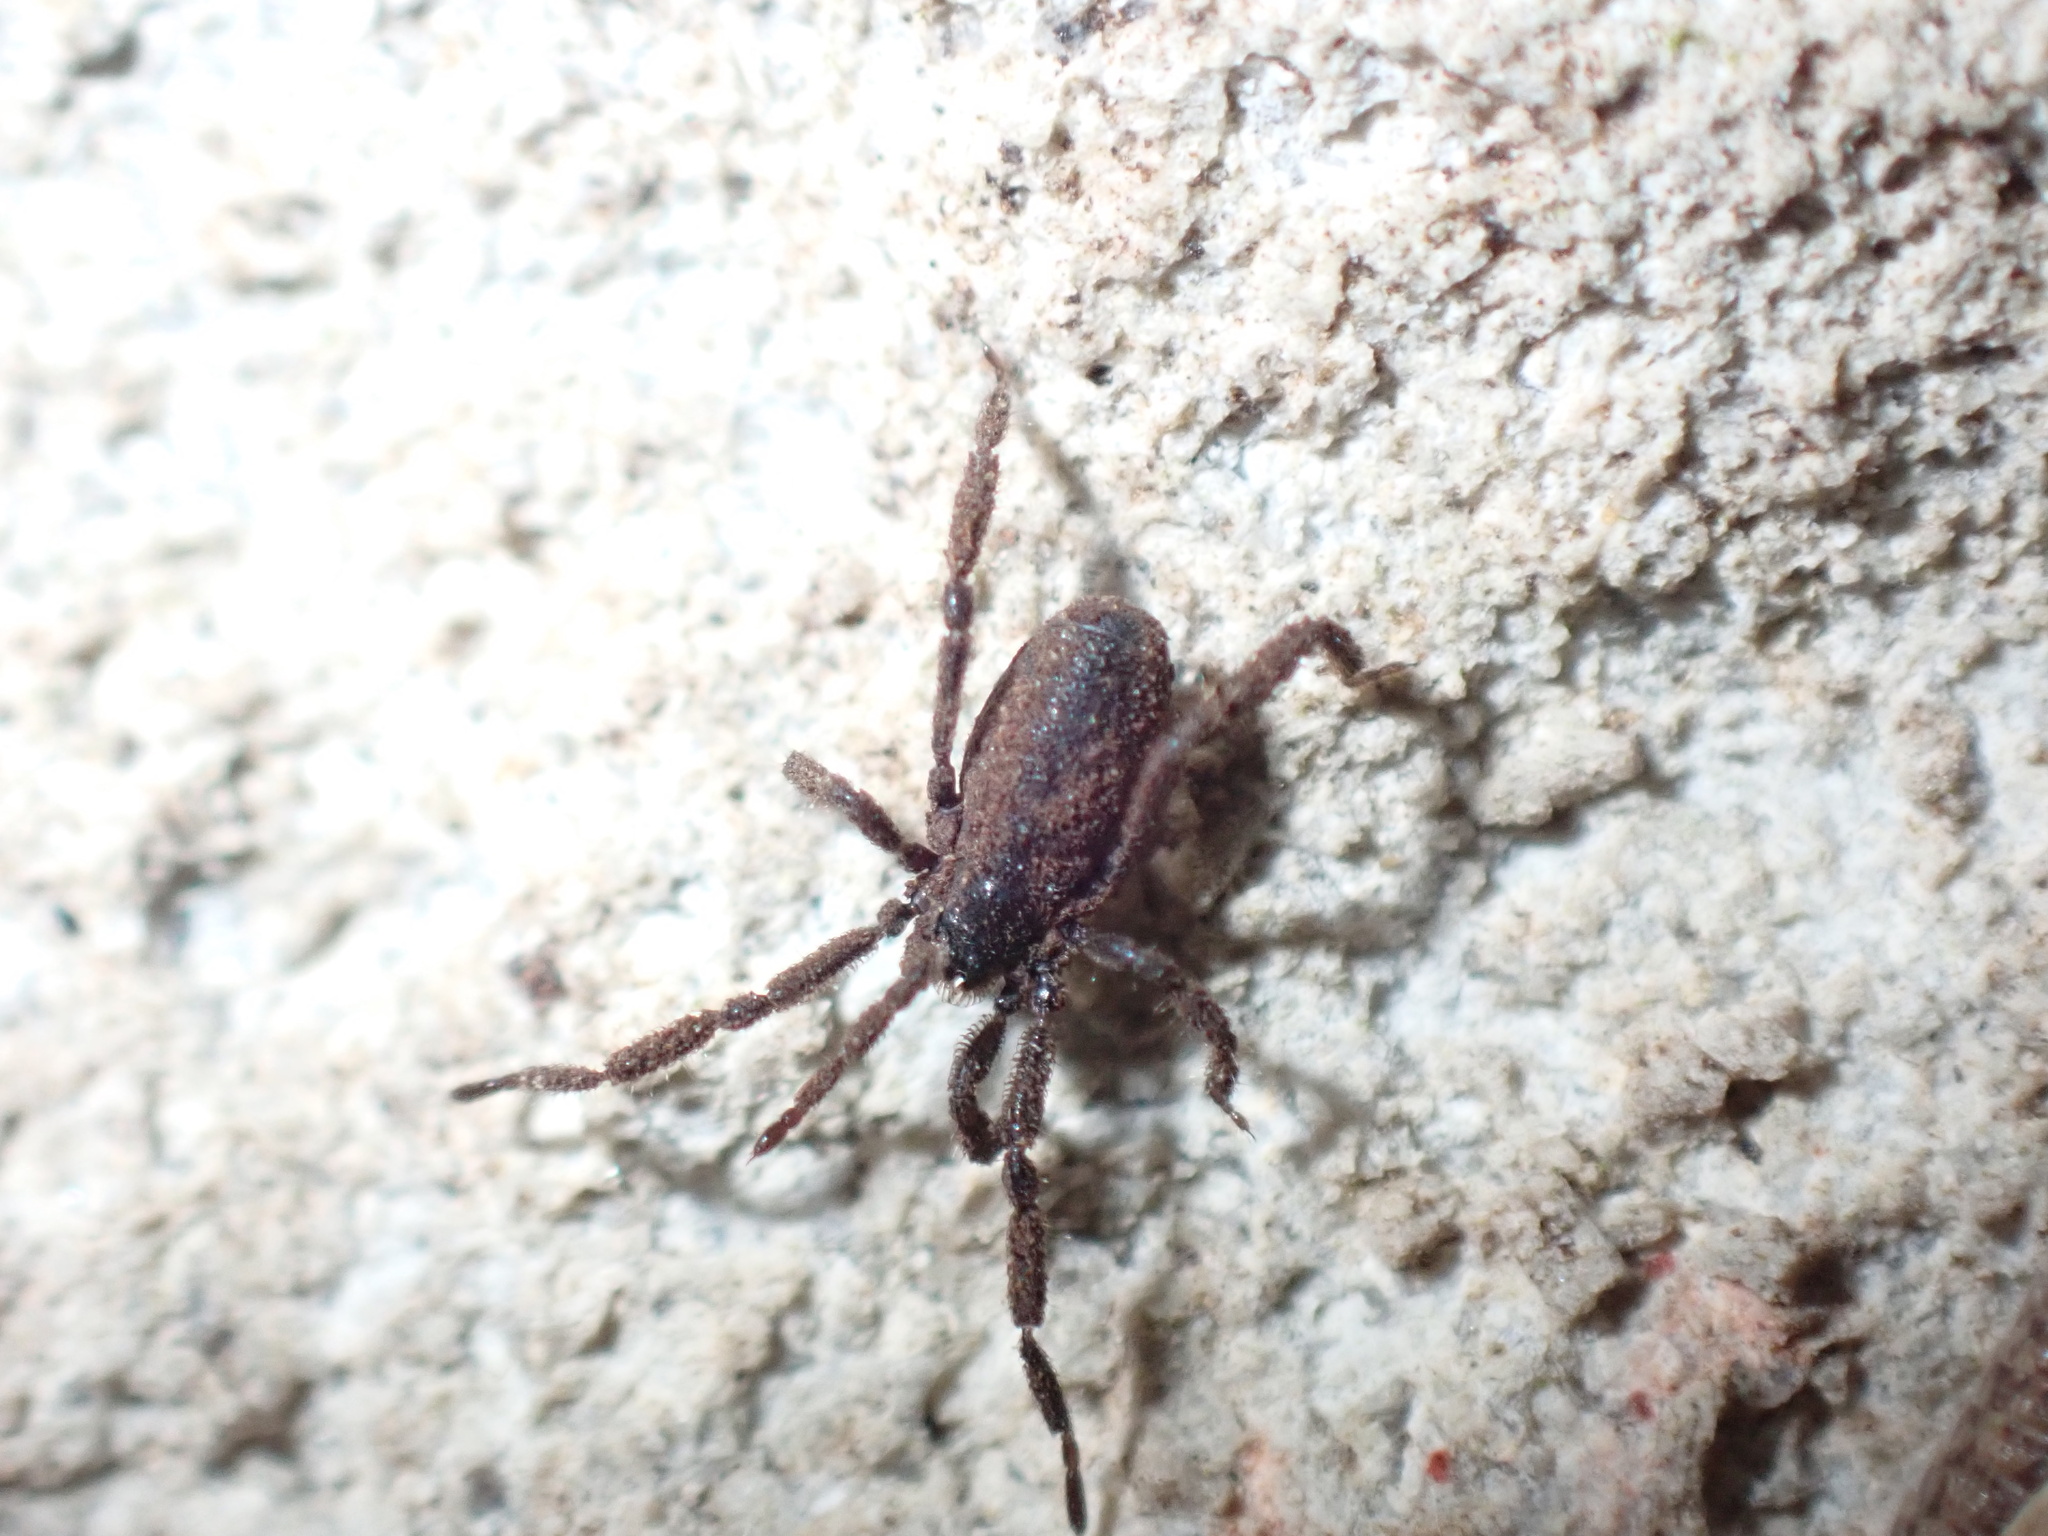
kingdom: Animalia
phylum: Arthropoda
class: Arachnida
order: Opiliones
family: Trogulidae
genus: Anelasmocephalus
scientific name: Anelasmocephalus cambridgei
